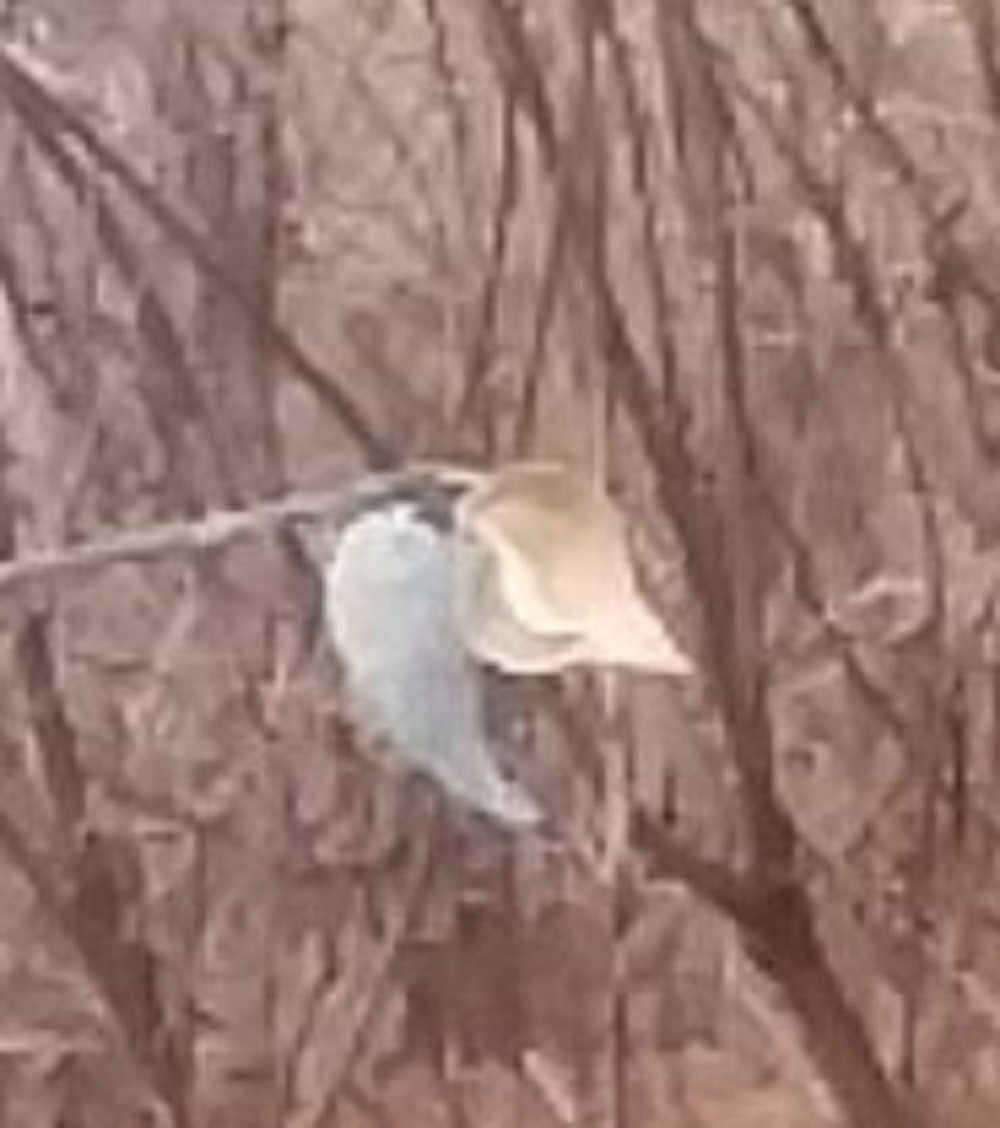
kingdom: Plantae
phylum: Tracheophyta
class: Magnoliopsida
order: Gentianales
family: Apocynaceae
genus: Asclepias
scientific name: Asclepias syriaca
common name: Common milkweed
